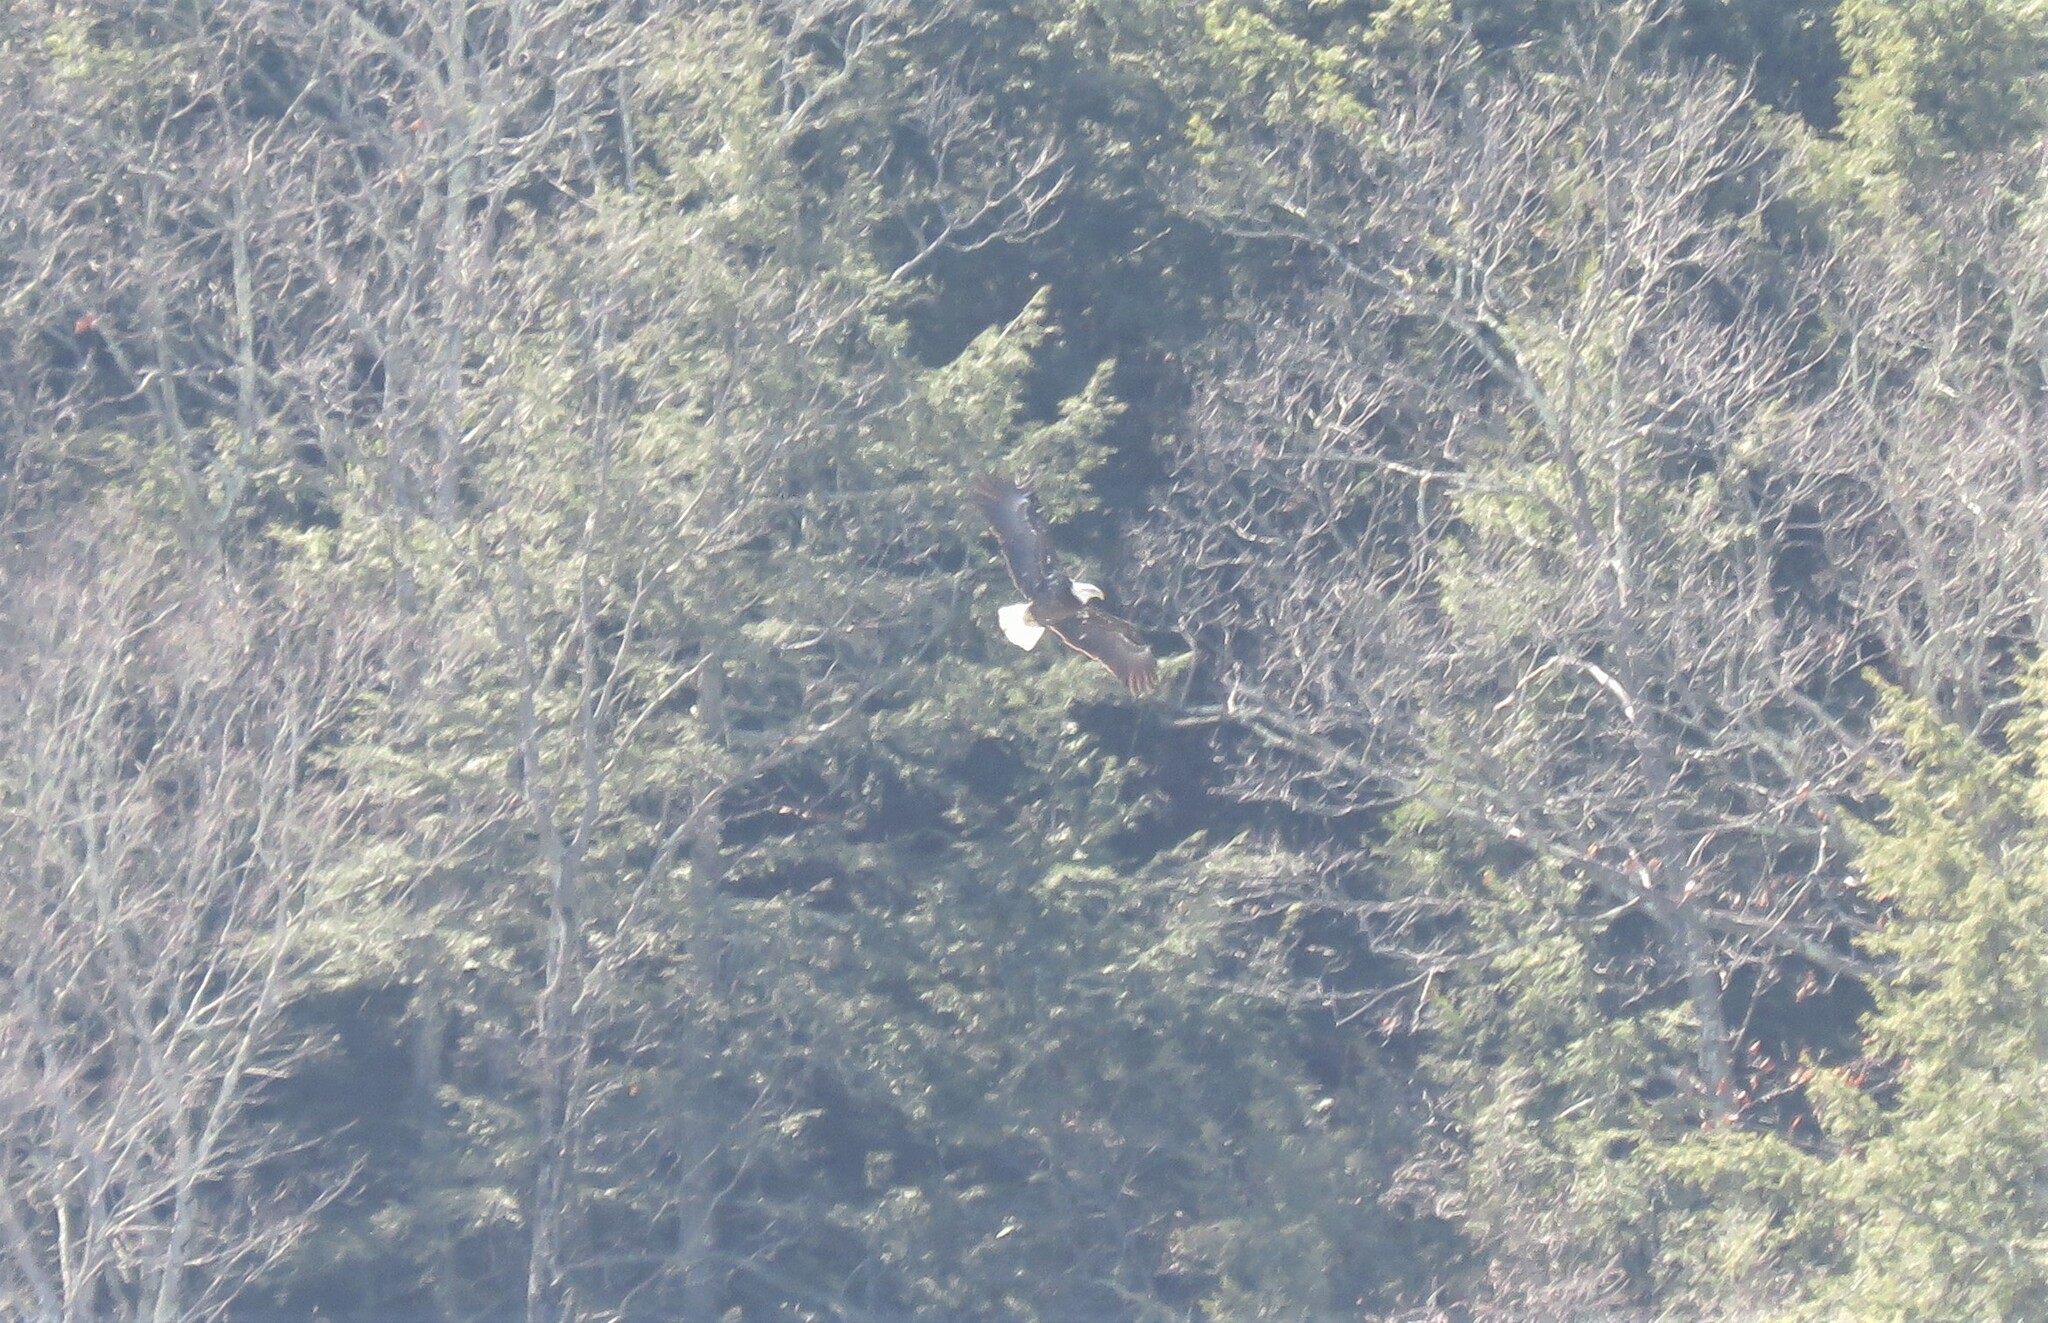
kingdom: Animalia
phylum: Chordata
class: Aves
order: Accipitriformes
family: Accipitridae
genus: Haliaeetus
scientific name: Haliaeetus leucocephalus
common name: Bald eagle
